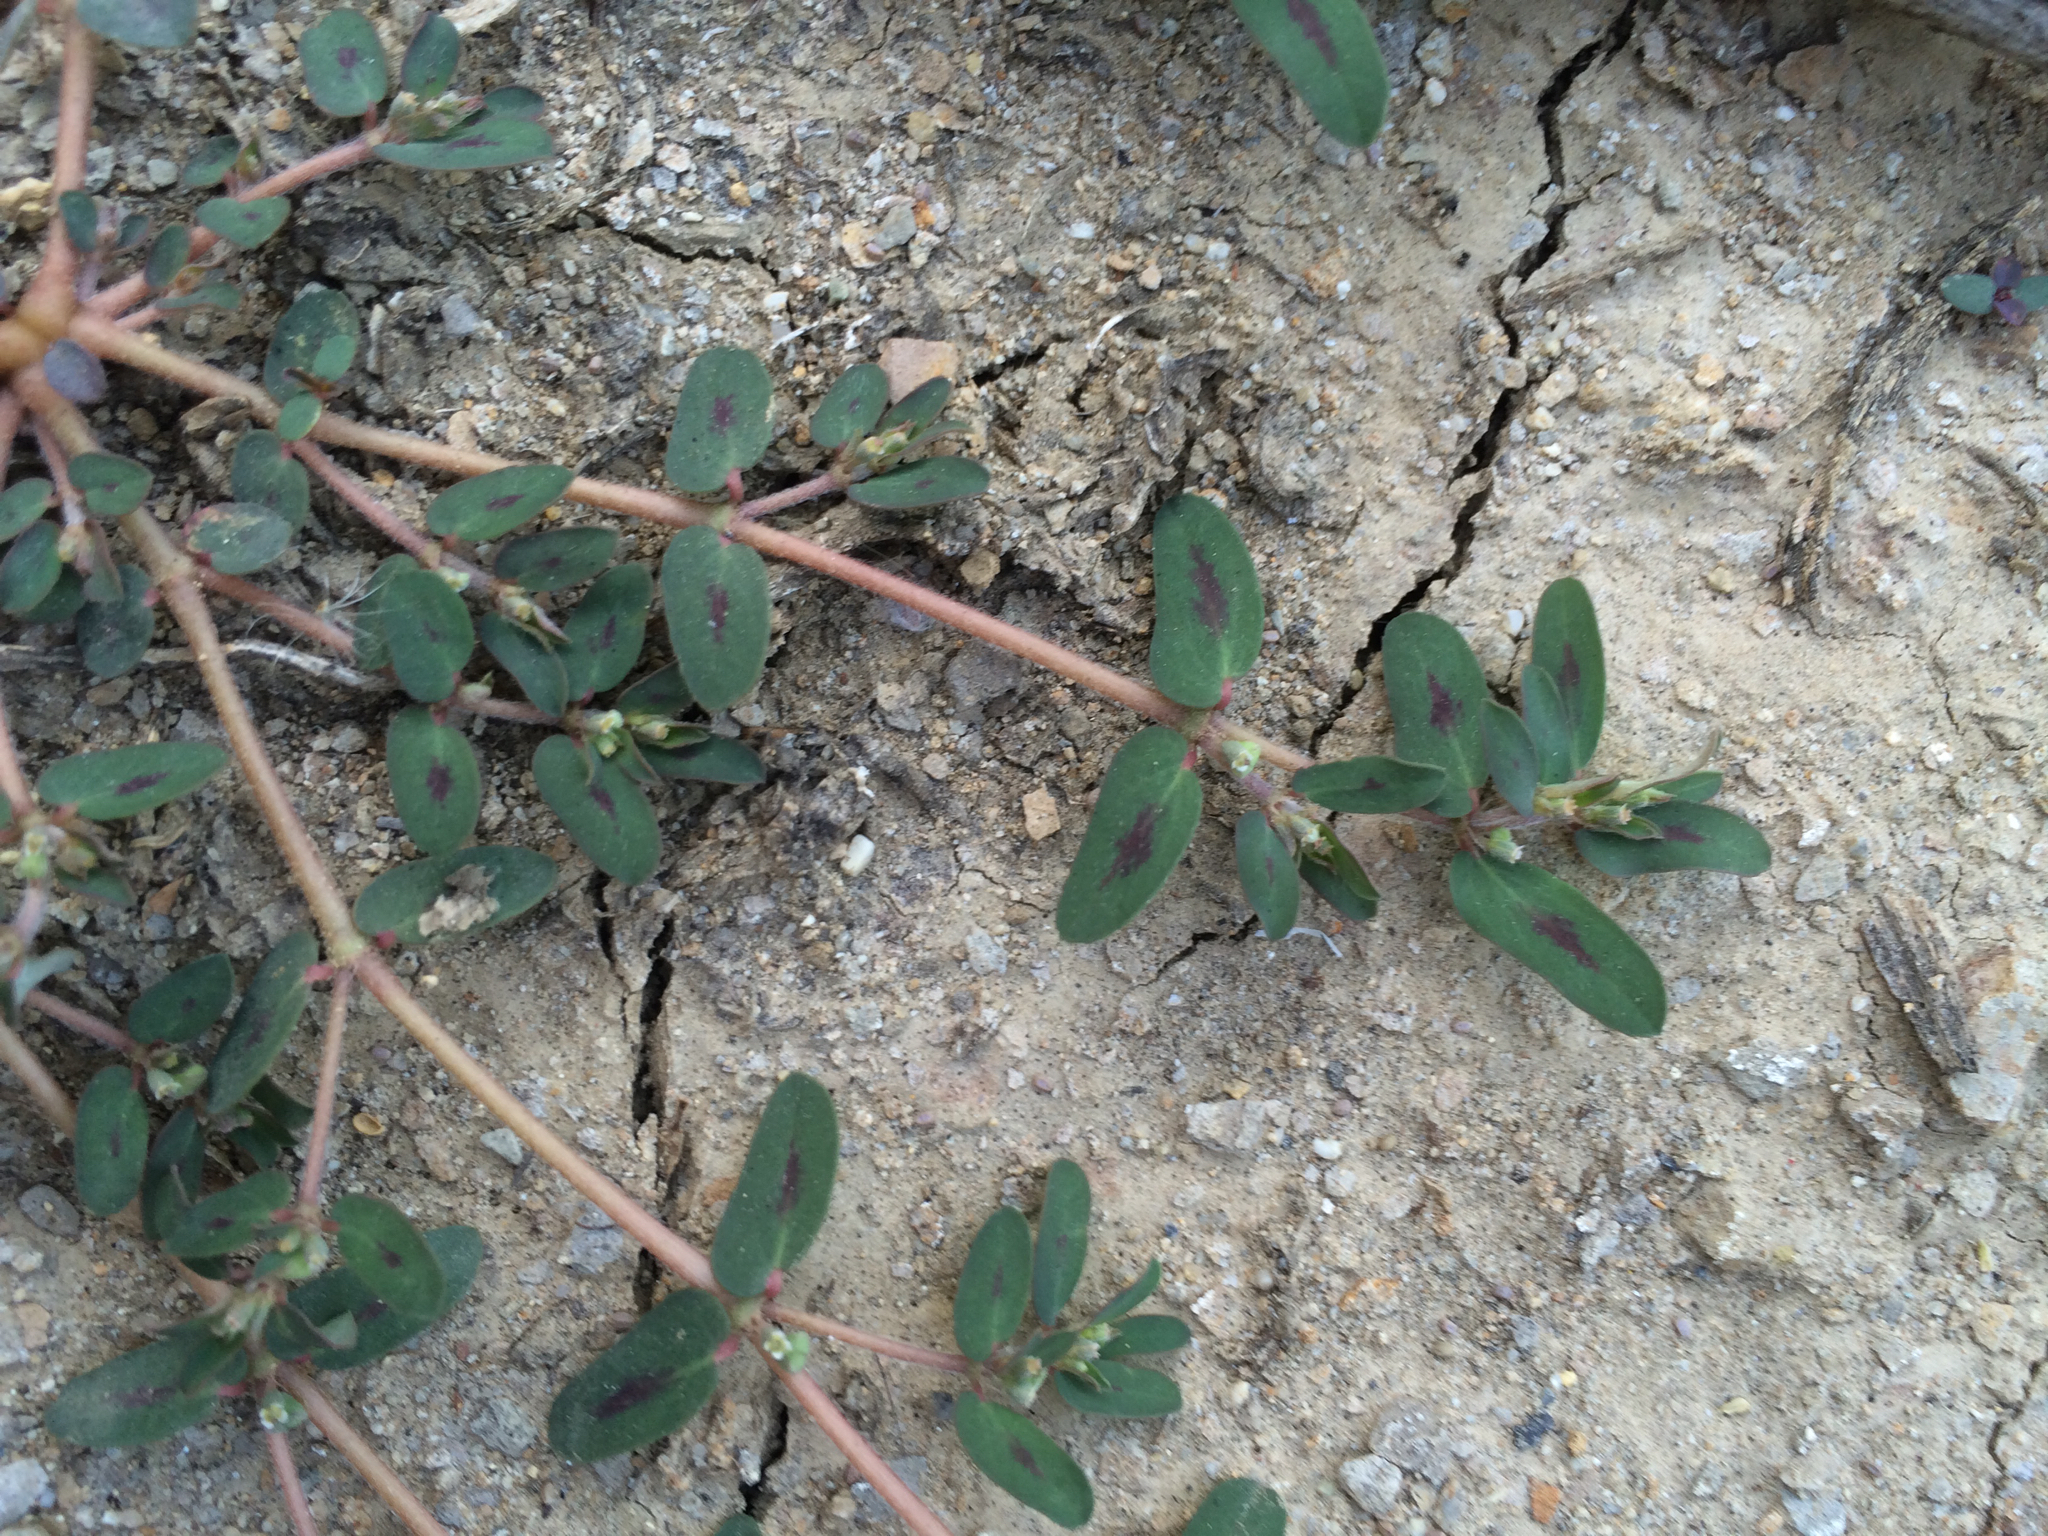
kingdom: Plantae
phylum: Tracheophyta
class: Magnoliopsida
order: Malpighiales
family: Euphorbiaceae
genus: Euphorbia
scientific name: Euphorbia maculata
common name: Spotted spurge
